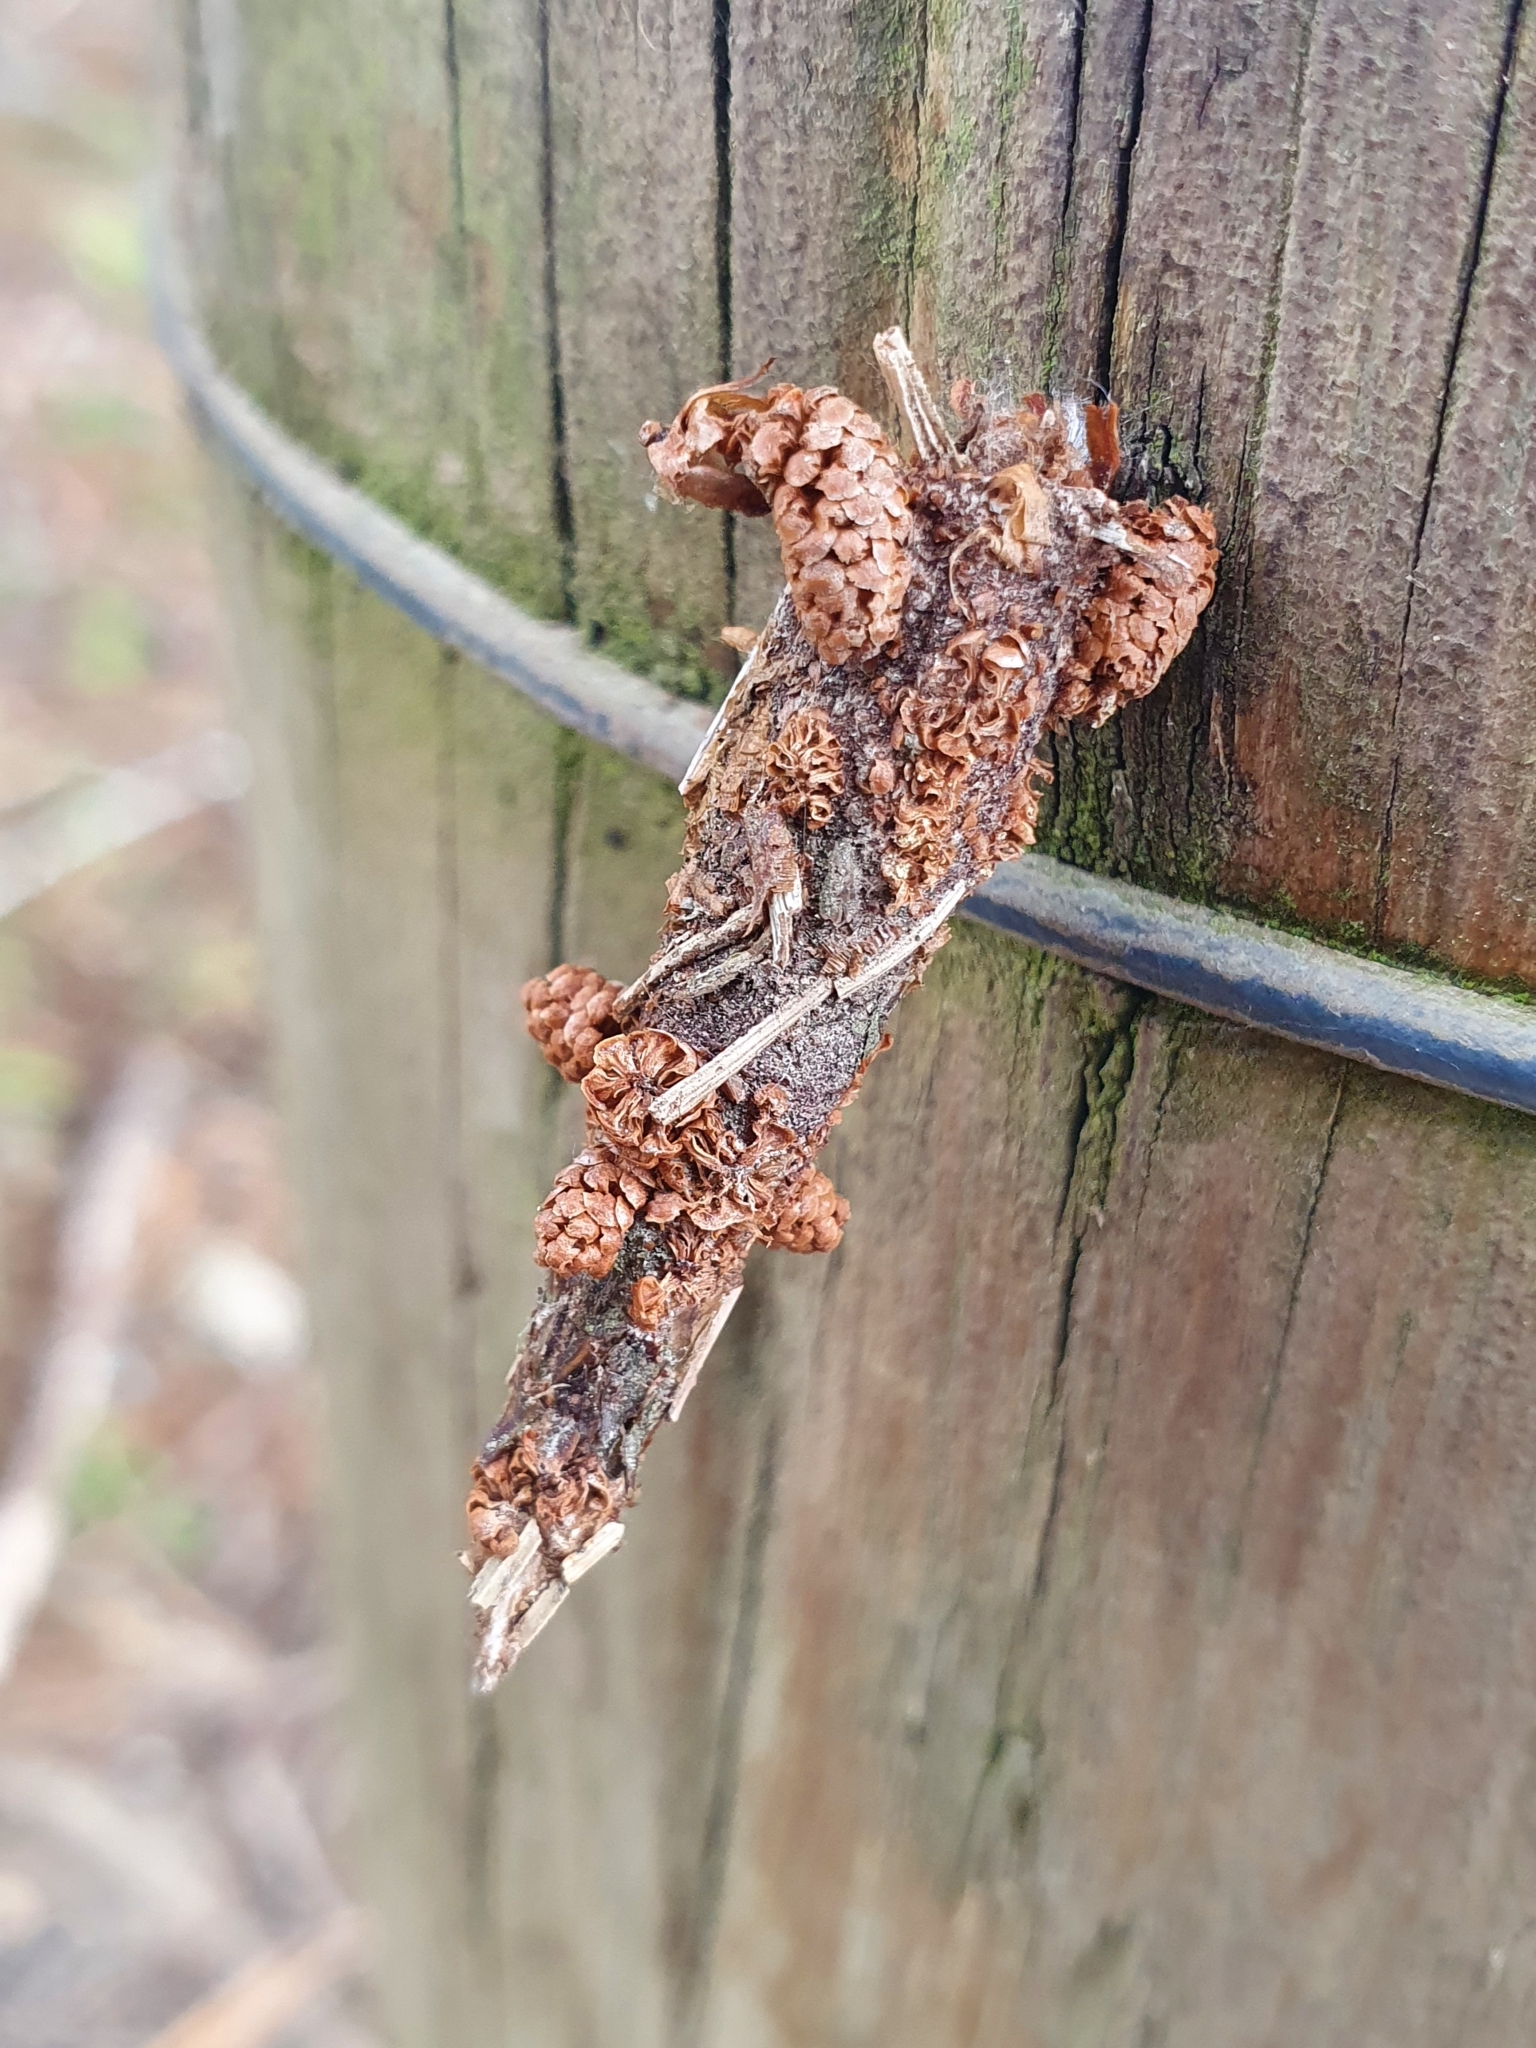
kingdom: Animalia
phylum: Arthropoda
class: Insecta
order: Lepidoptera
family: Psychidae
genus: Liothula
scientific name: Liothula omnivora
